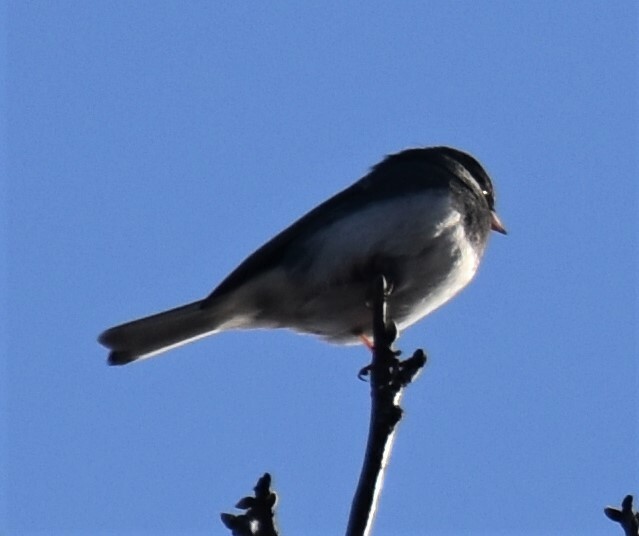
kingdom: Animalia
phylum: Chordata
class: Aves
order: Passeriformes
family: Passerellidae
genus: Junco
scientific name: Junco hyemalis
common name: Dark-eyed junco
